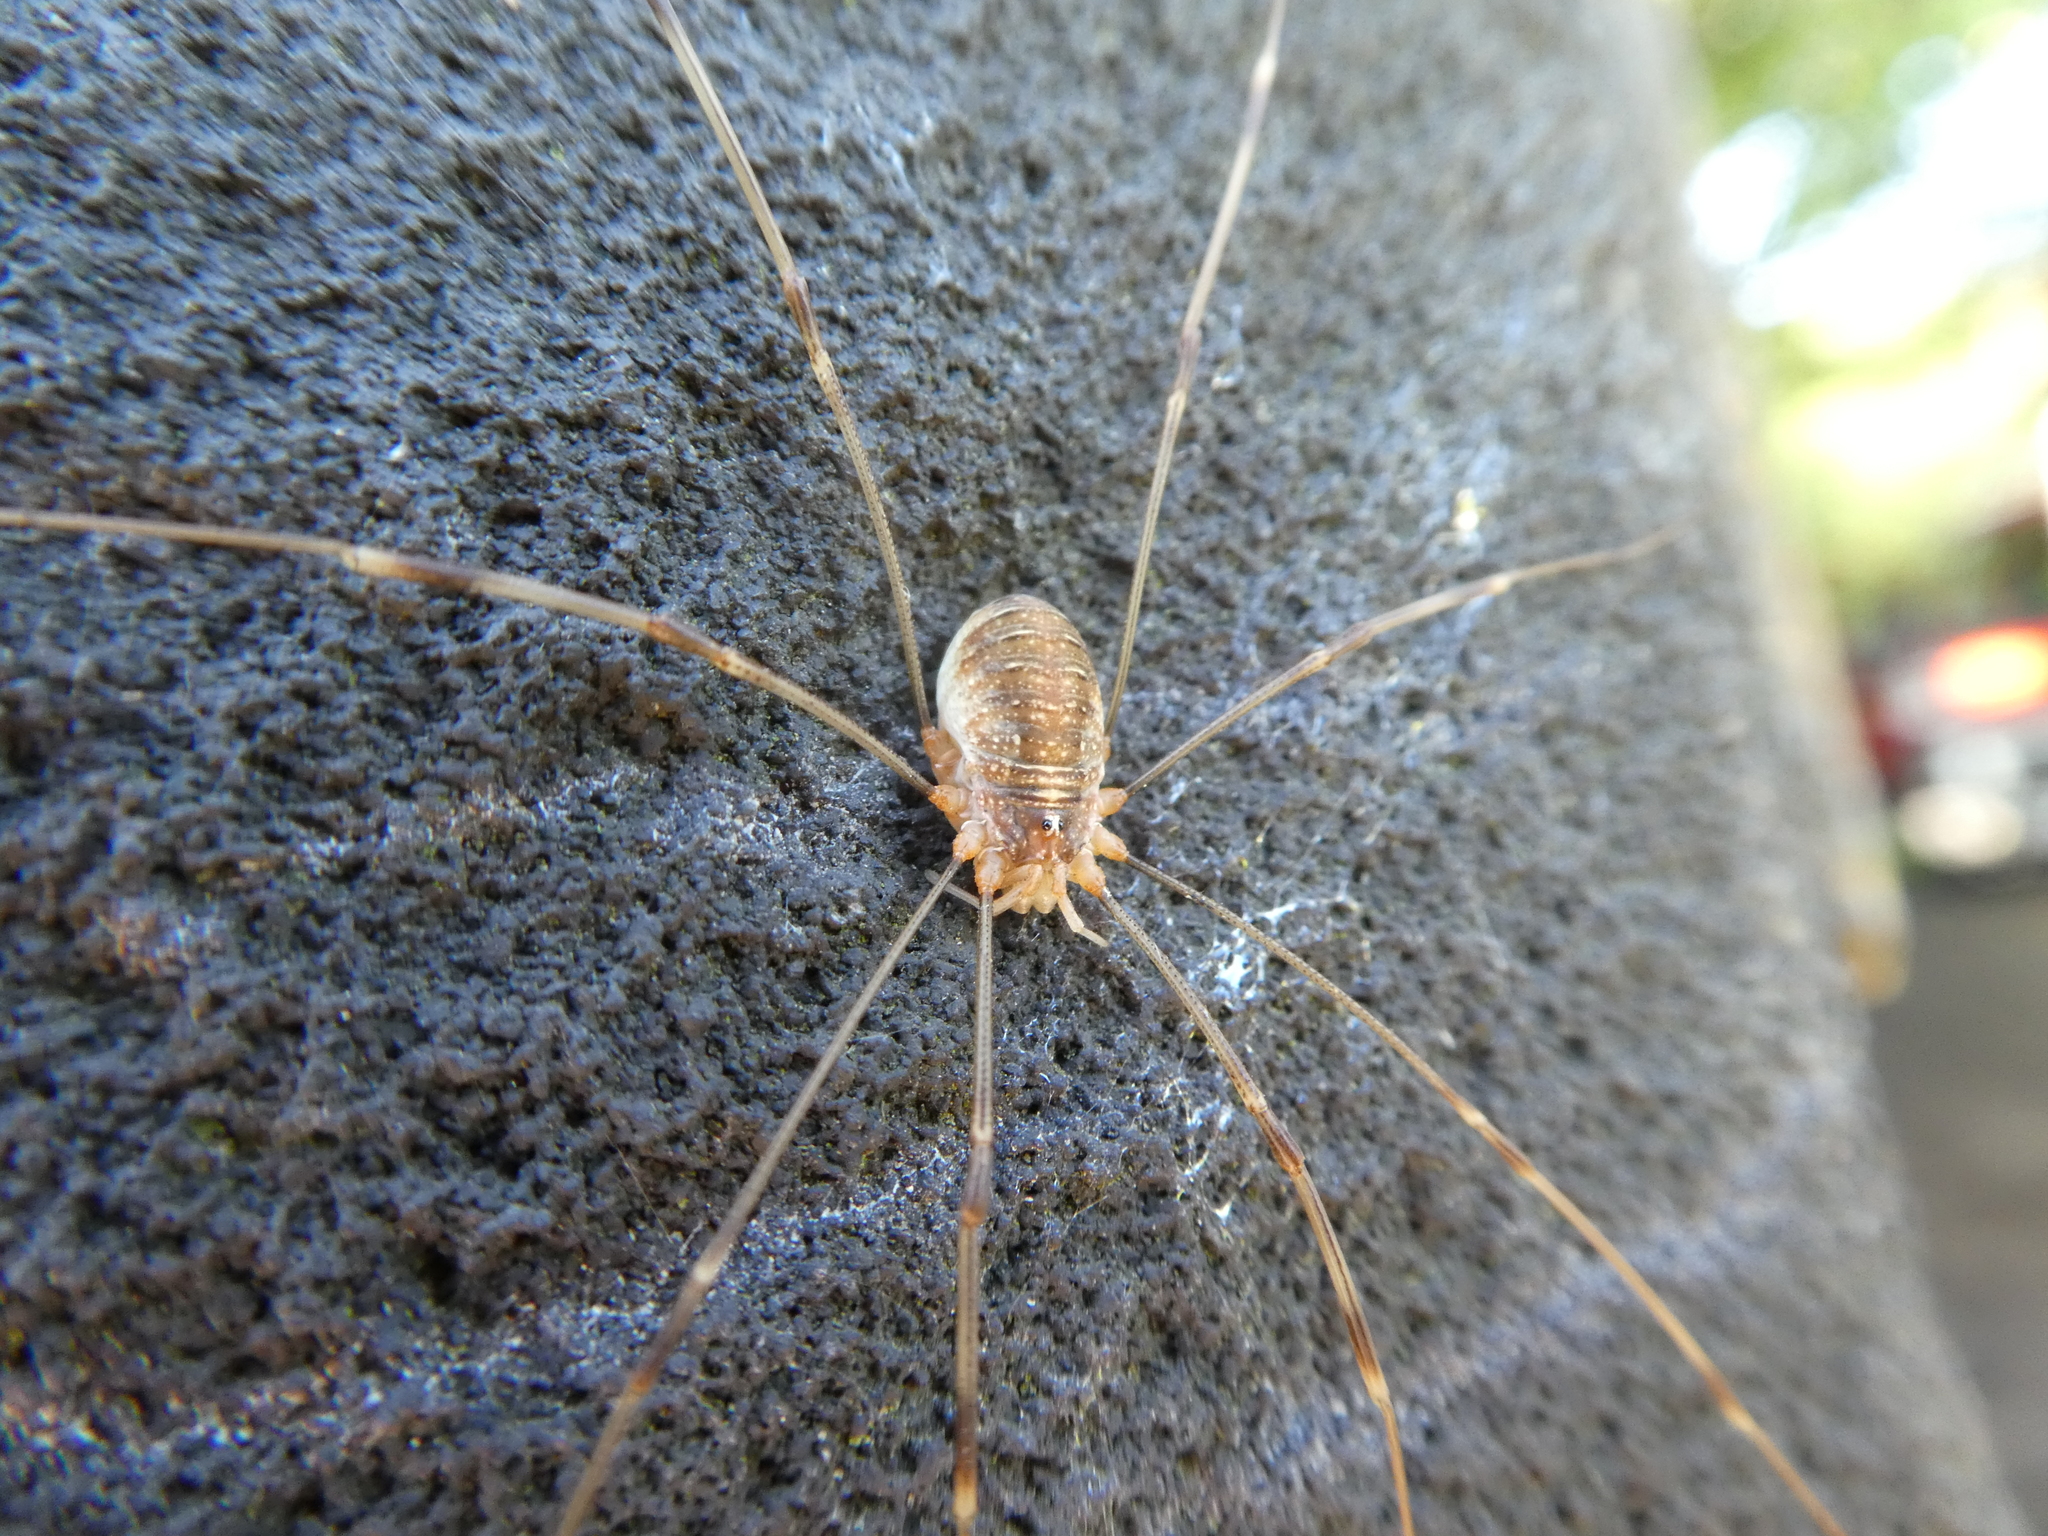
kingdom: Animalia
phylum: Arthropoda
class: Arachnida
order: Opiliones
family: Phalangiidae
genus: Opilio
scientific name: Opilio canestrinii
